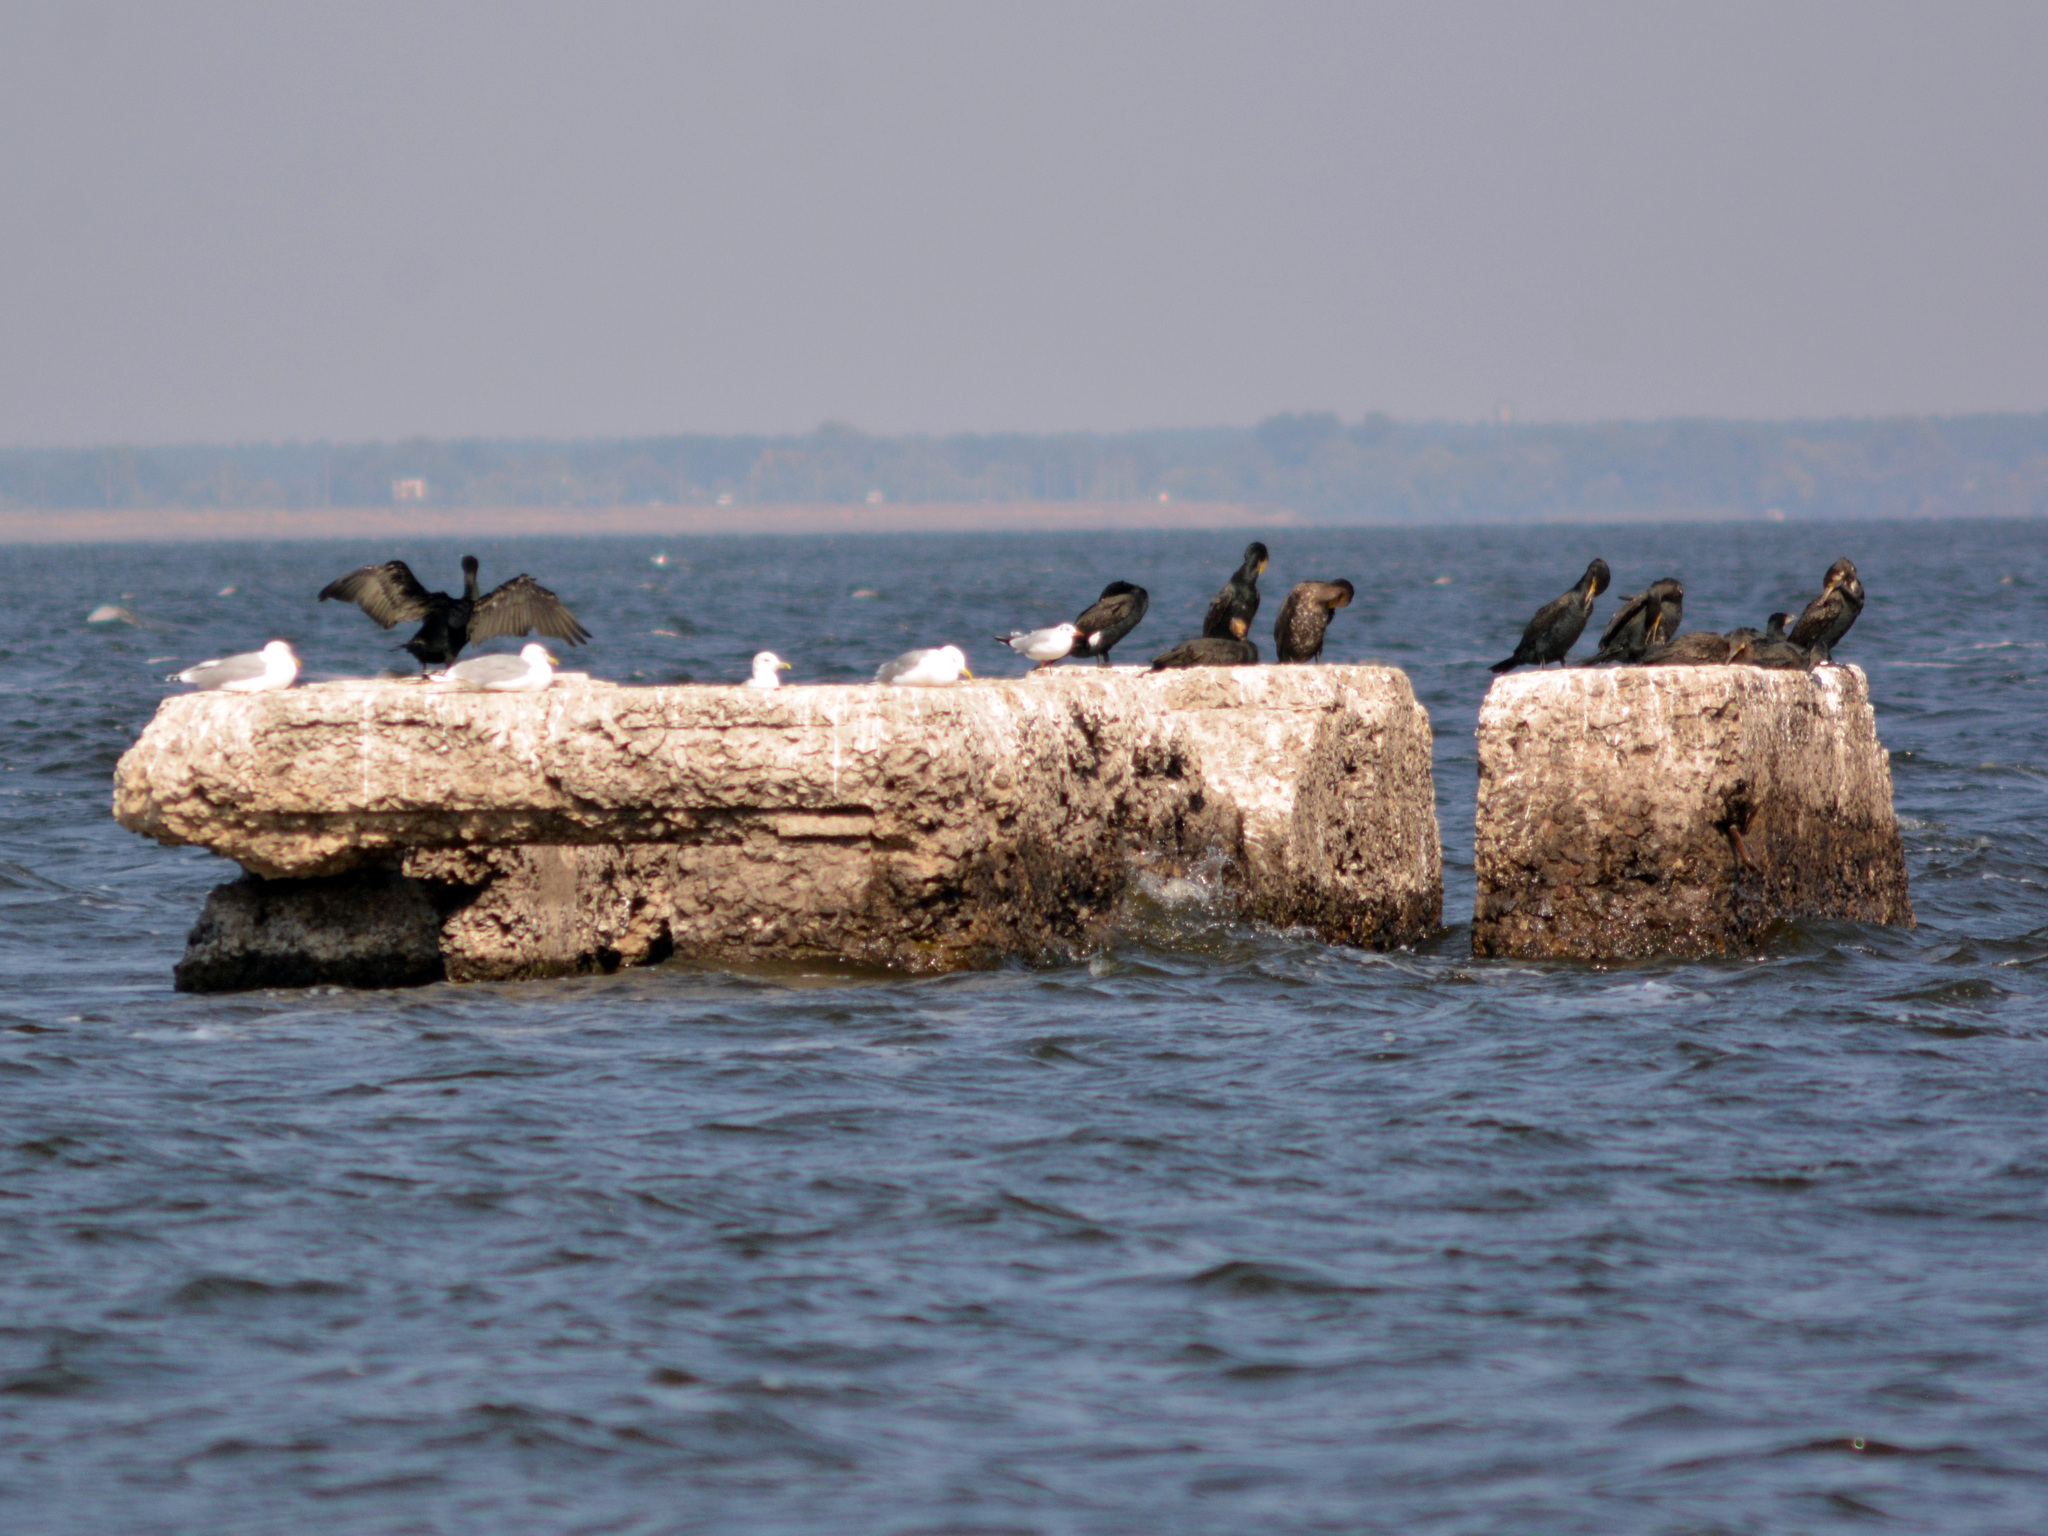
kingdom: Animalia
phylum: Chordata
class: Aves
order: Suliformes
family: Phalacrocoracidae
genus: Phalacrocorax
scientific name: Phalacrocorax carbo
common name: Great cormorant
